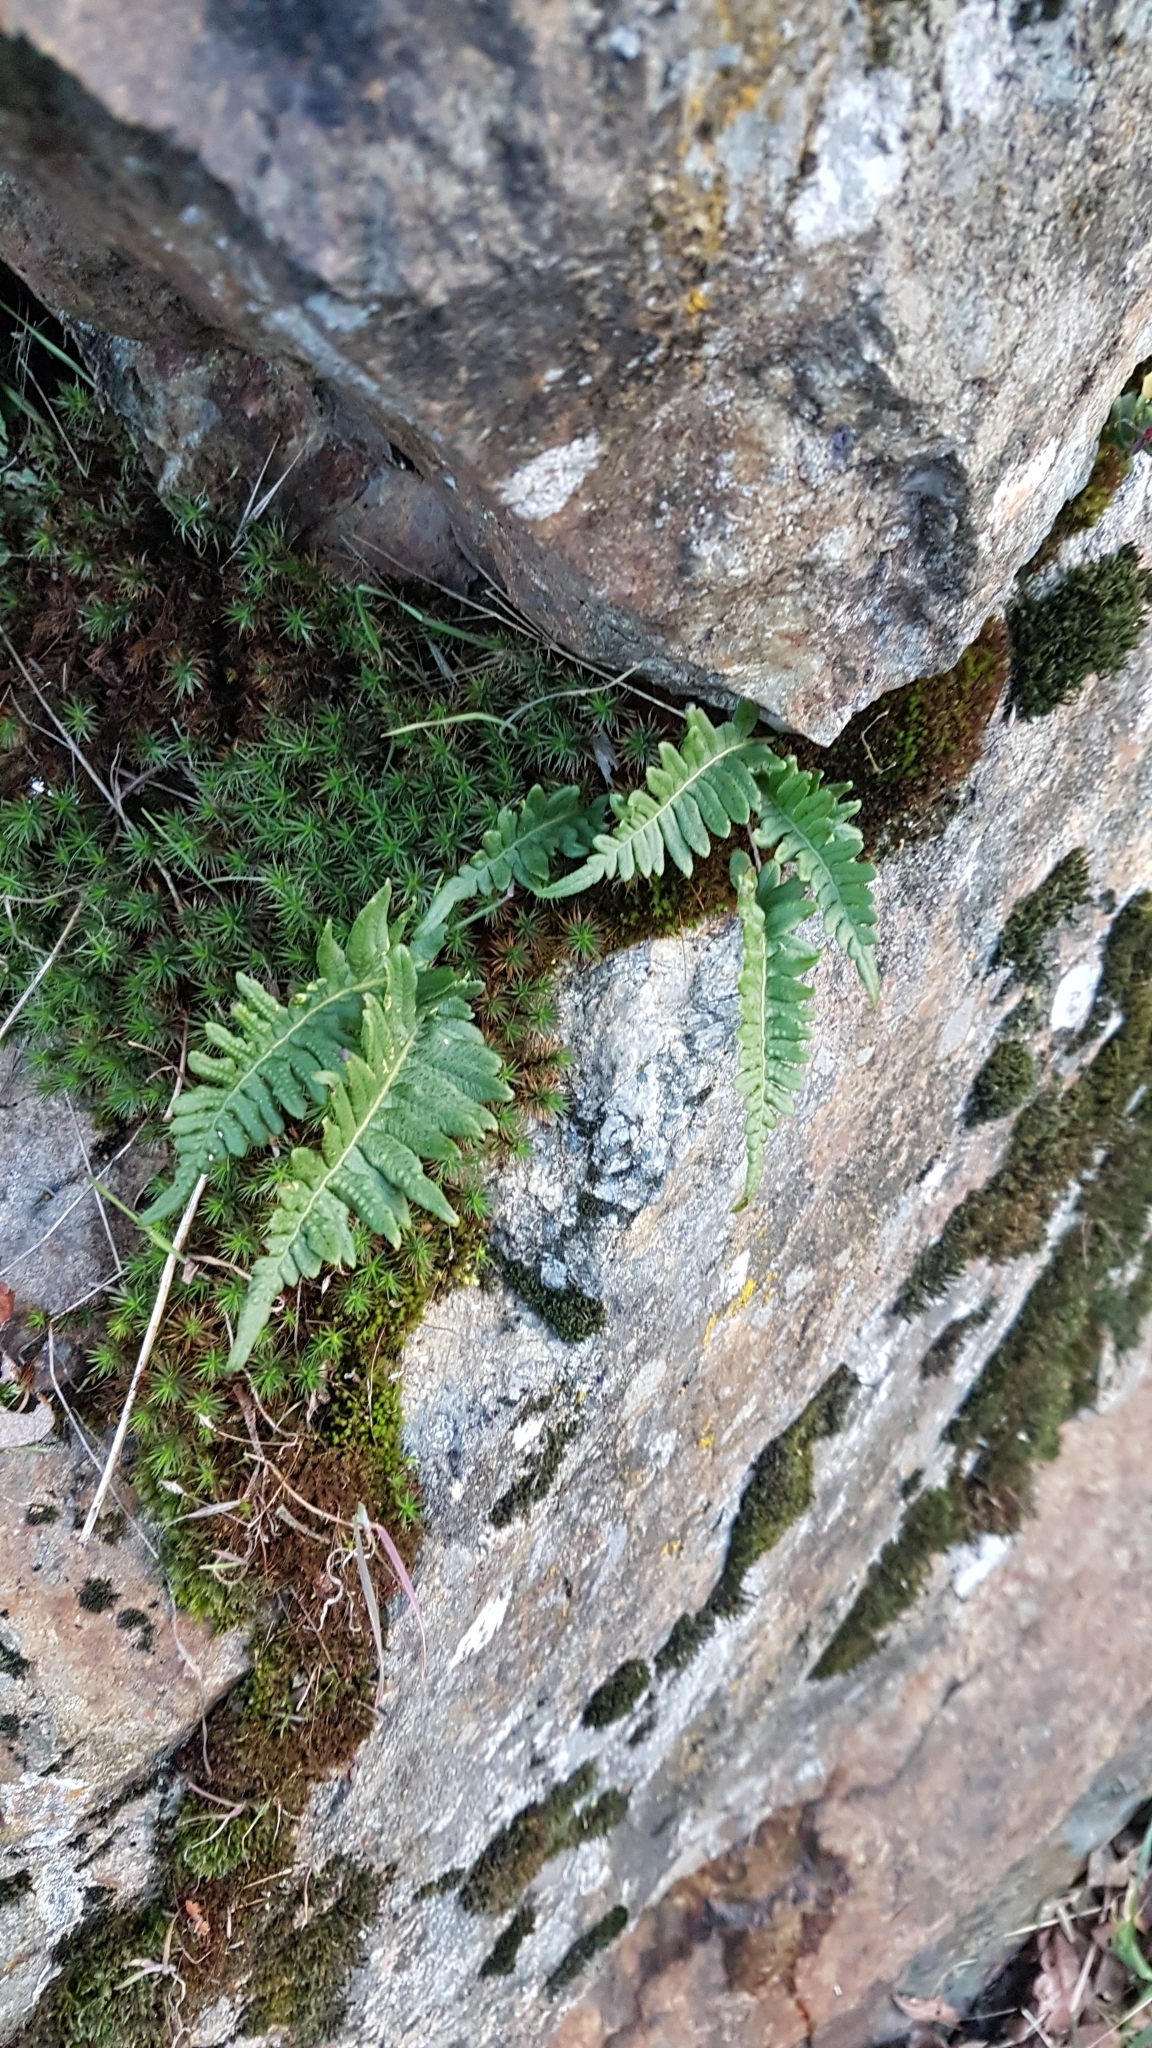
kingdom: Plantae
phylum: Tracheophyta
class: Polypodiopsida
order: Polypodiales
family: Polypodiaceae
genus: Polypodium
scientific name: Polypodium glycyrrhiza
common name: Licorice fern
